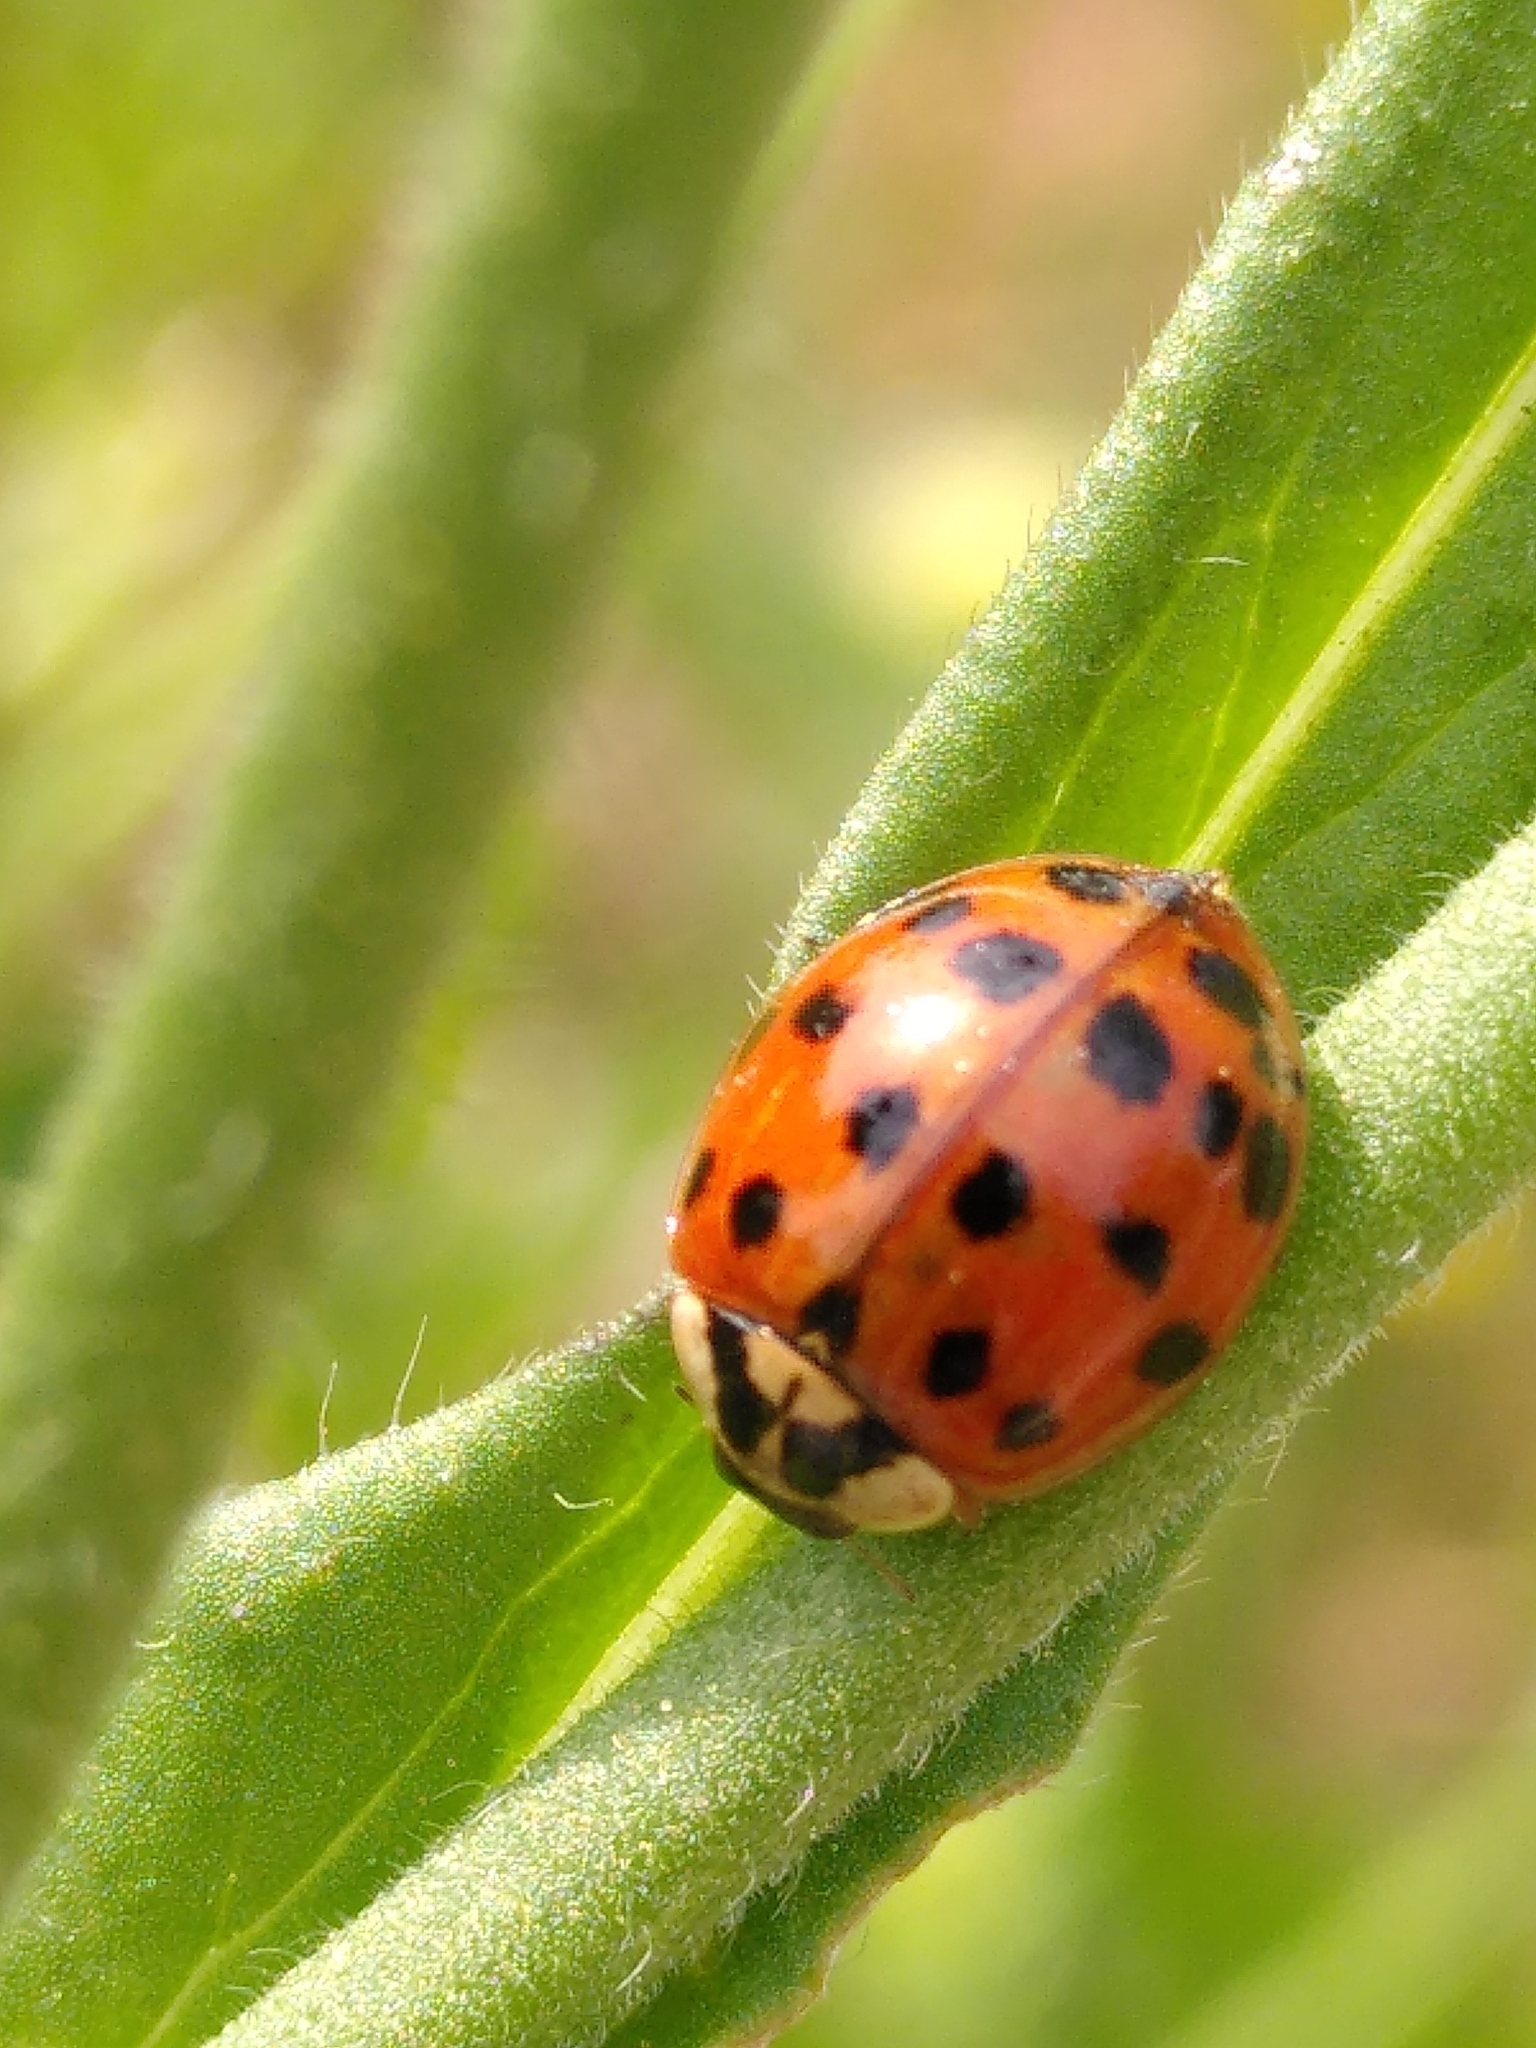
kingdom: Animalia
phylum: Arthropoda
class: Insecta
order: Coleoptera
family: Coccinellidae
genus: Harmonia
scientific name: Harmonia axyridis
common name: Harlequin ladybird
